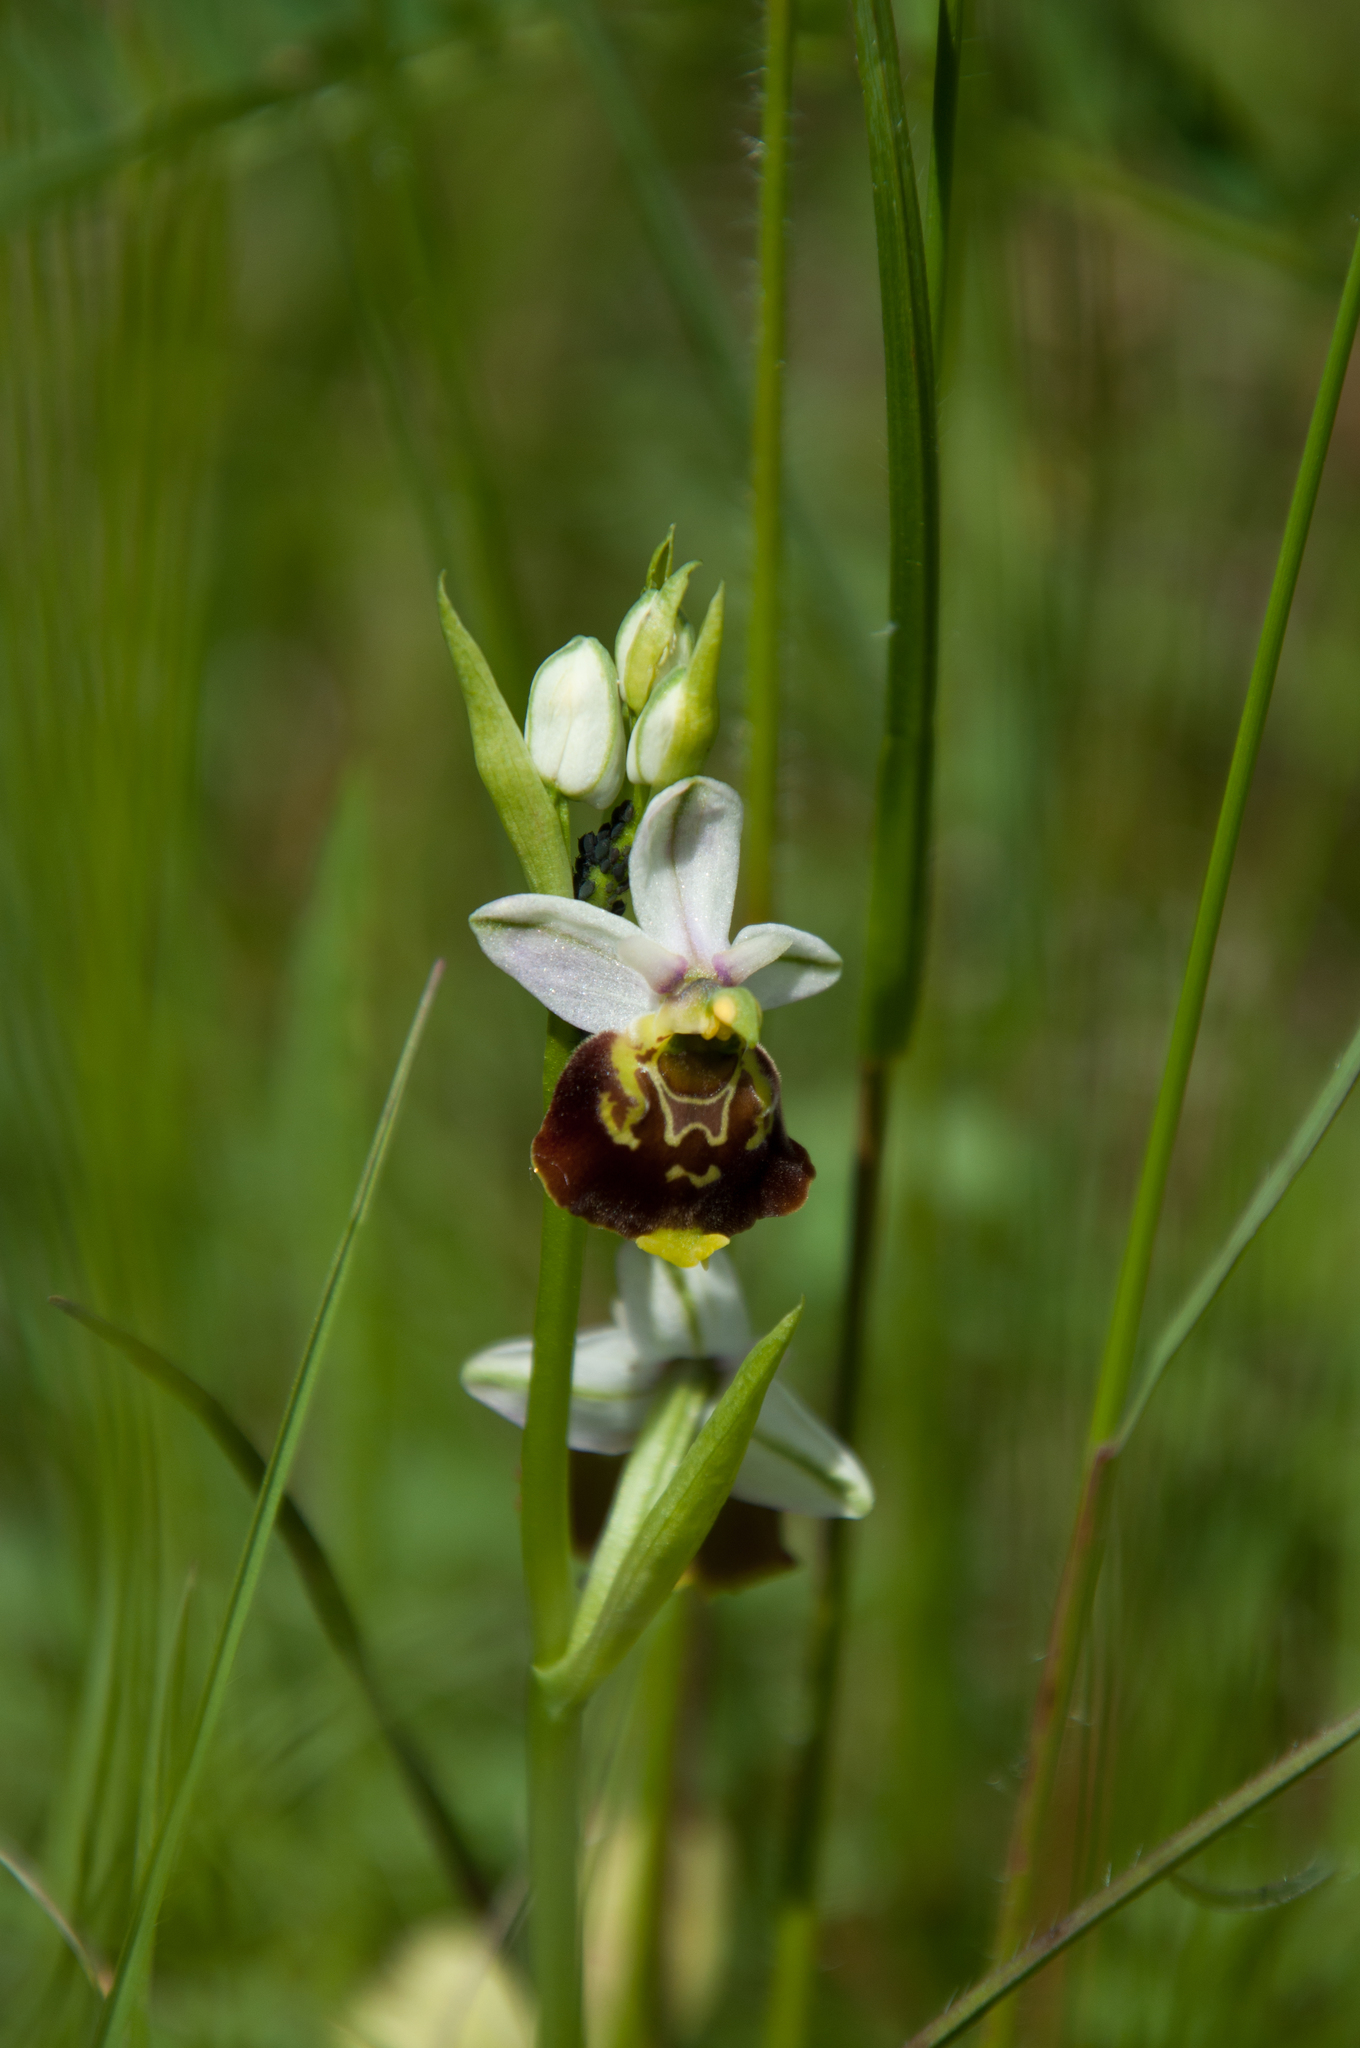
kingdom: Plantae
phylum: Tracheophyta
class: Liliopsida
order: Asparagales
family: Orchidaceae
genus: Ophrys
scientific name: Ophrys holosericea
